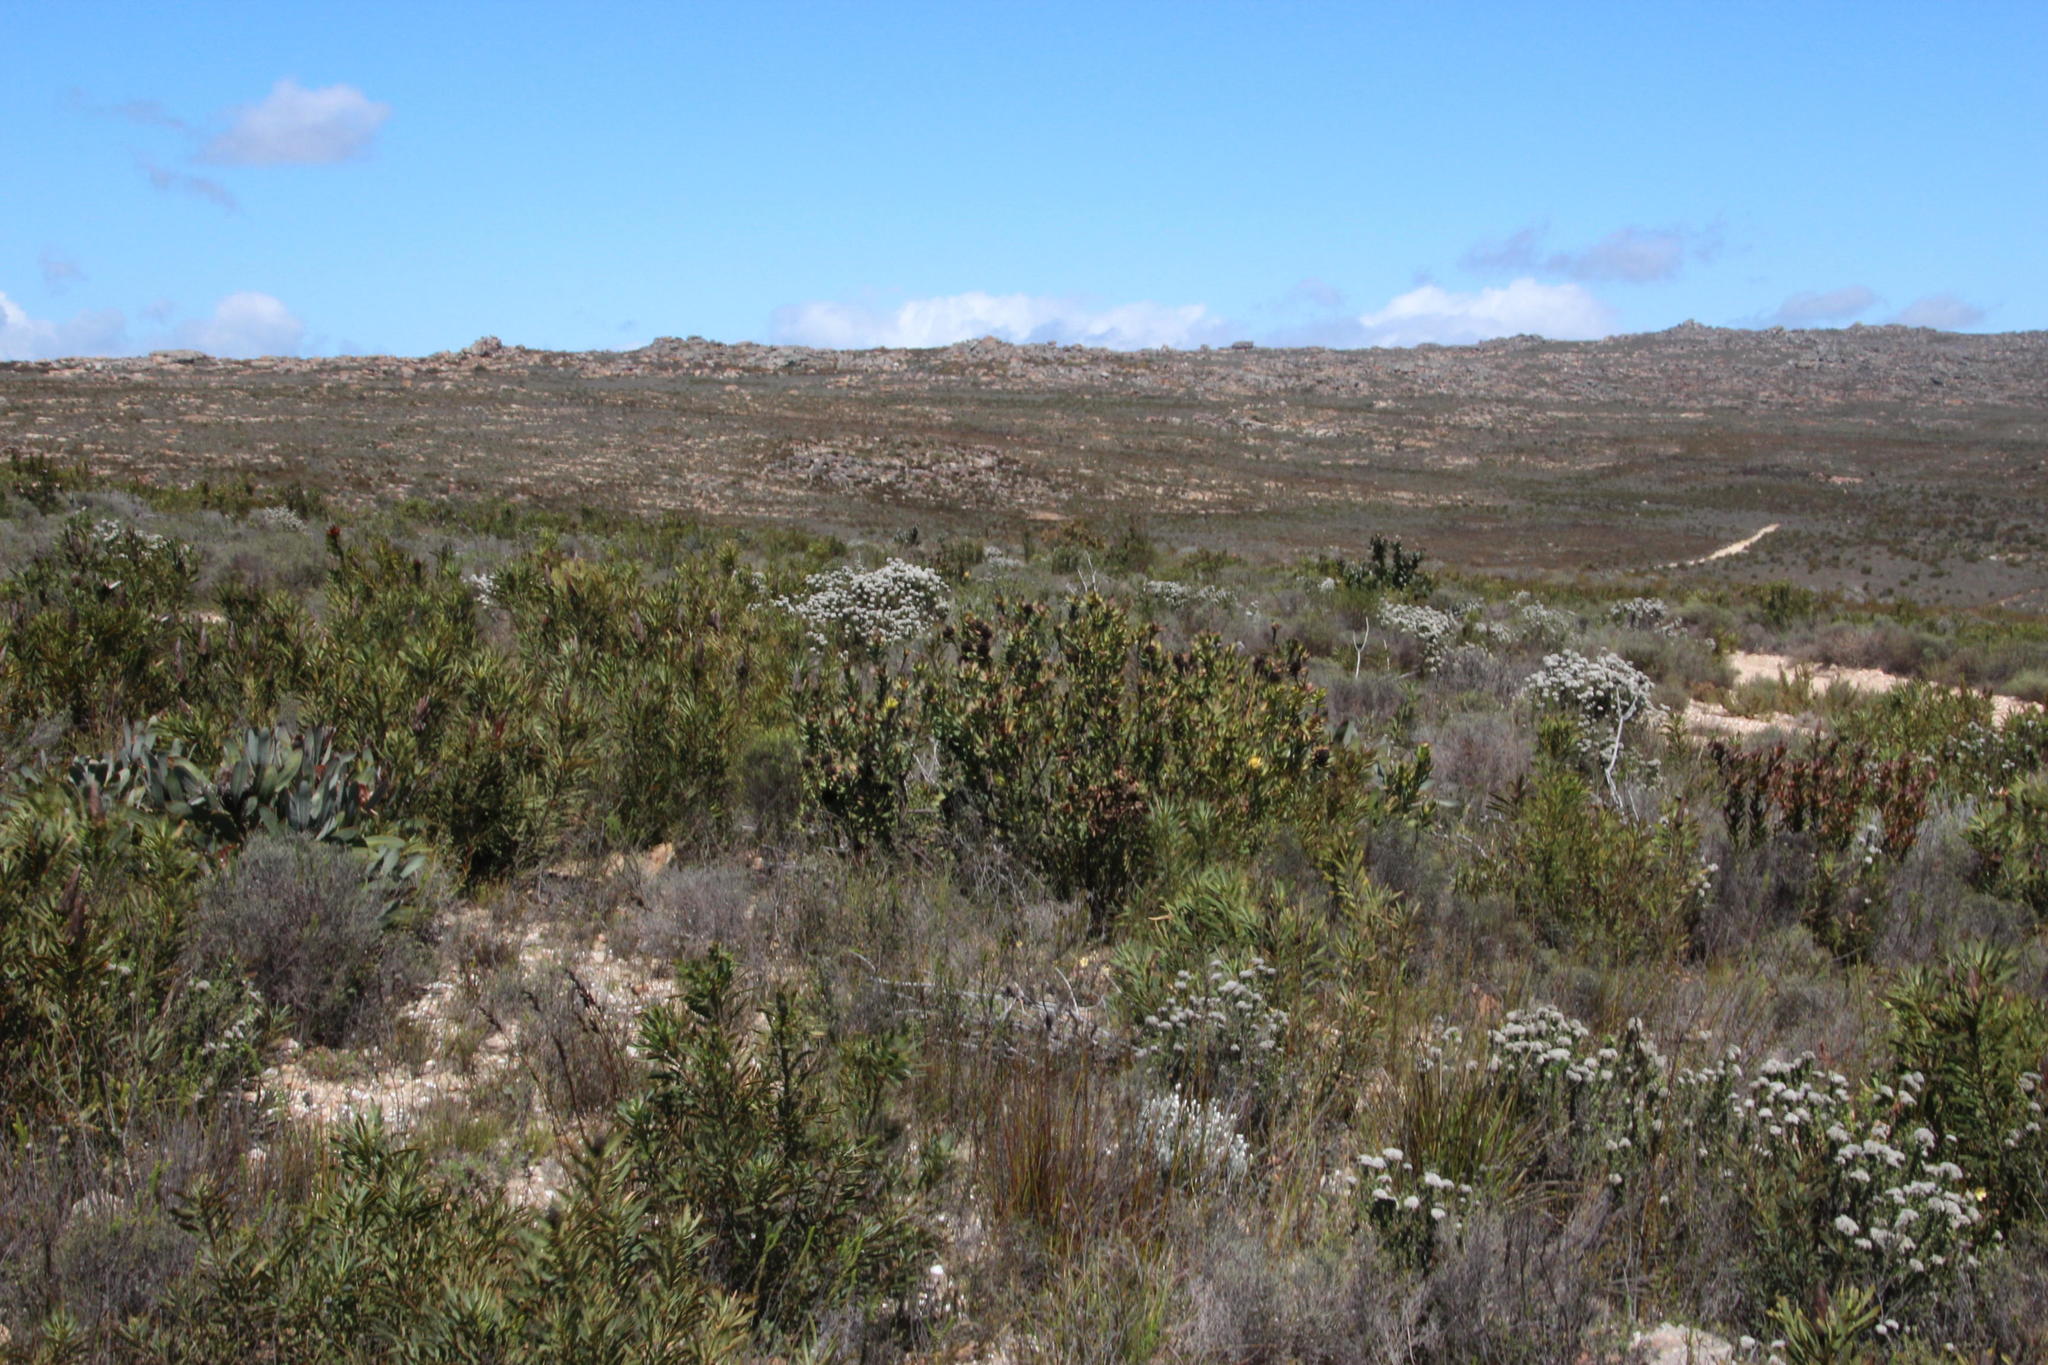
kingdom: Plantae
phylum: Tracheophyta
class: Magnoliopsida
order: Proteales
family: Proteaceae
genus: Protea
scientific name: Protea repens
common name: Sugarbush
